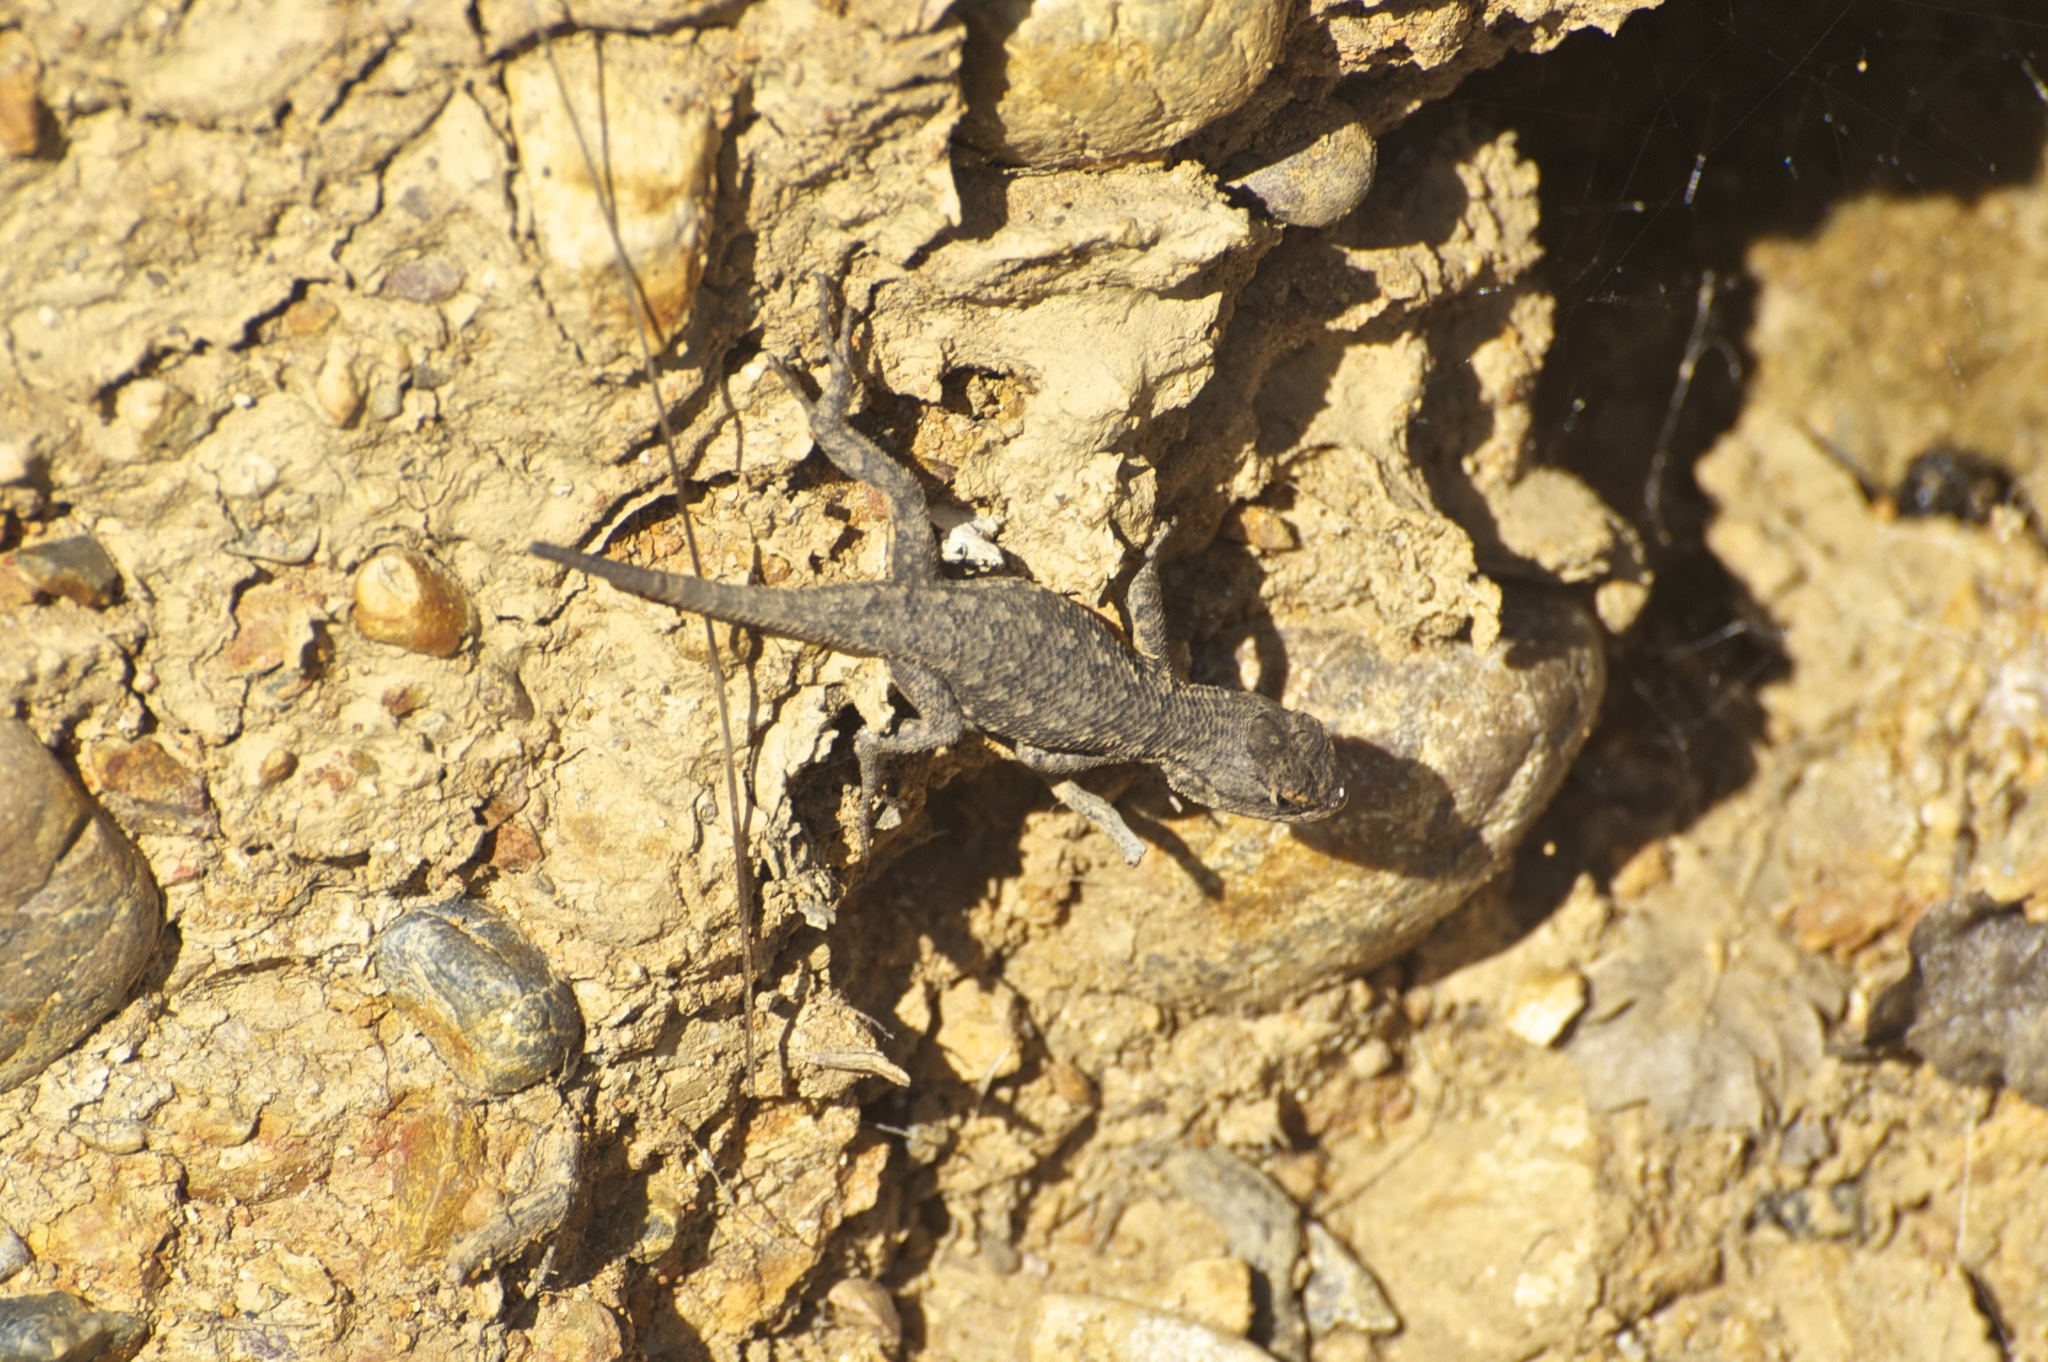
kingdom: Animalia
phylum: Chordata
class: Squamata
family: Phrynosomatidae
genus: Sceloporus
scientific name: Sceloporus occidentalis
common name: Western fence lizard
